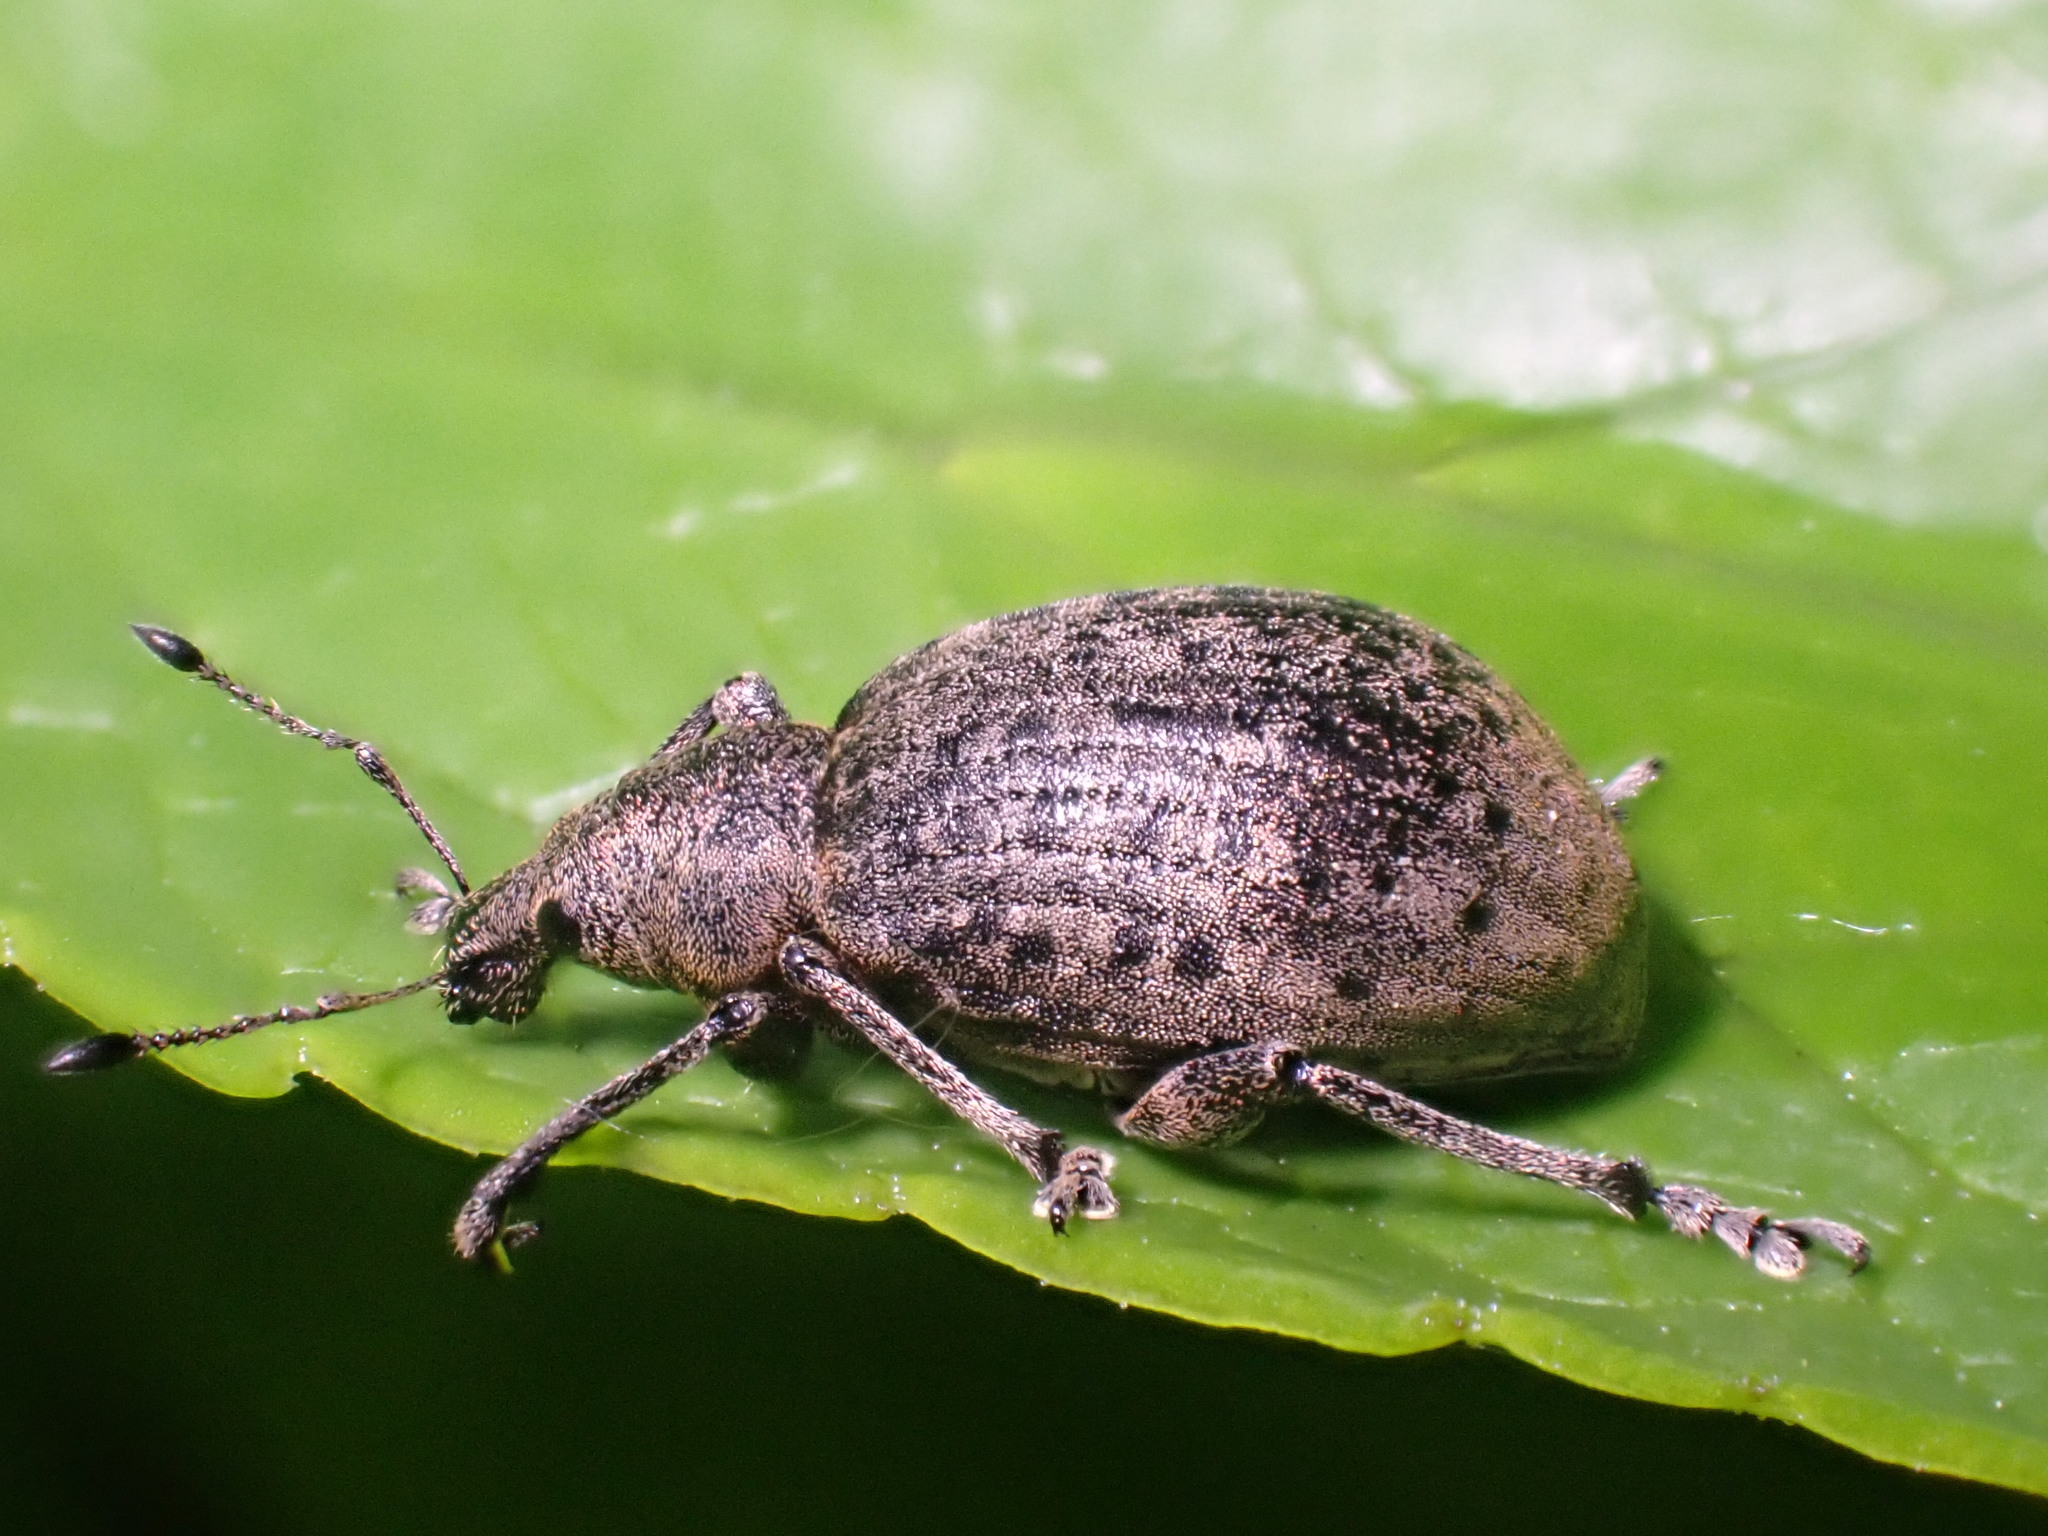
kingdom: Animalia
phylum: Arthropoda
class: Insecta
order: Coleoptera
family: Curculionidae
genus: Liophloeus
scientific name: Liophloeus tessulatus
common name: Weevil
